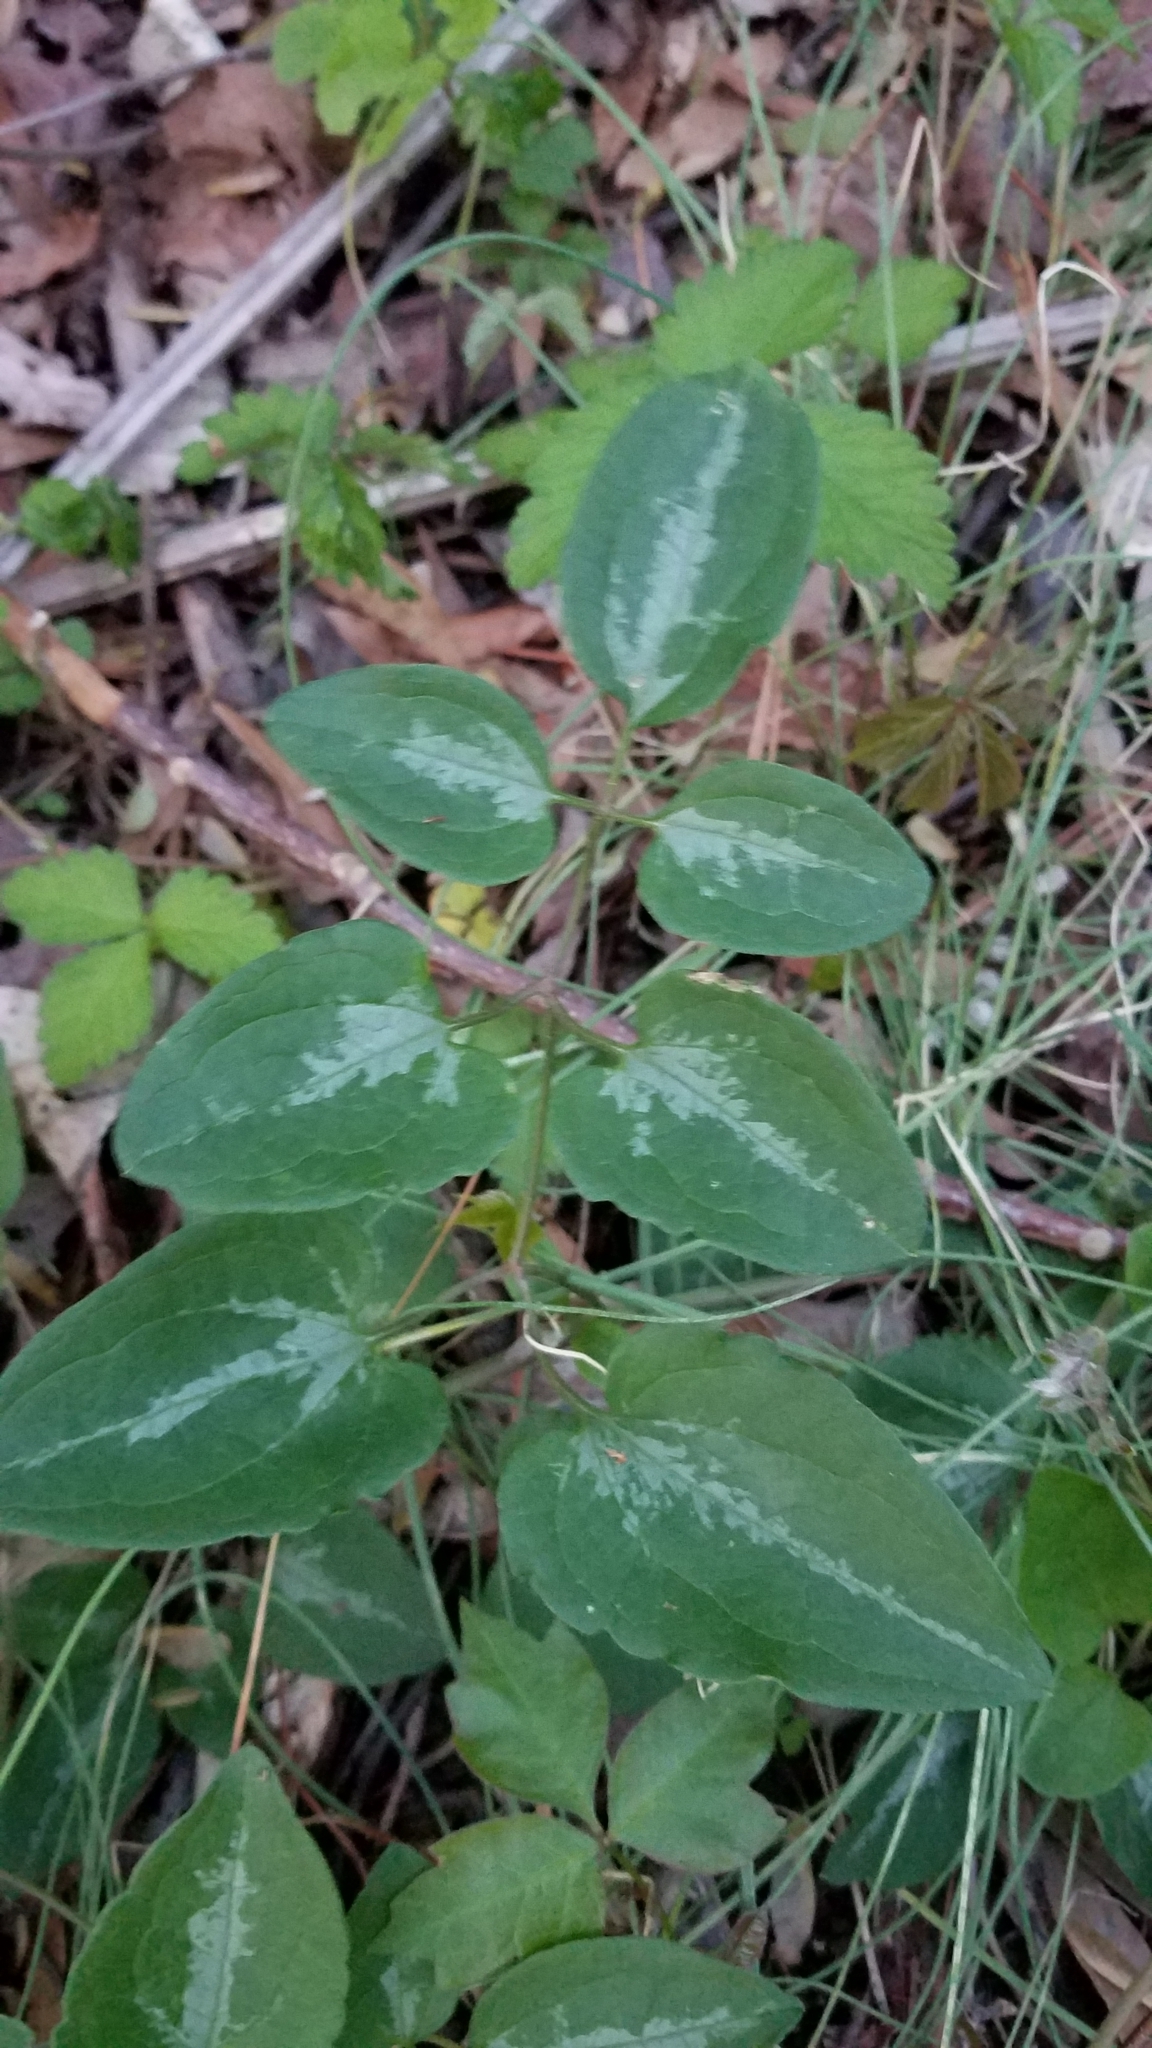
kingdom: Plantae
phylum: Tracheophyta
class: Magnoliopsida
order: Ranunculales
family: Ranunculaceae
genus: Clematis
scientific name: Clematis terniflora
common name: Sweet autumn clematis
